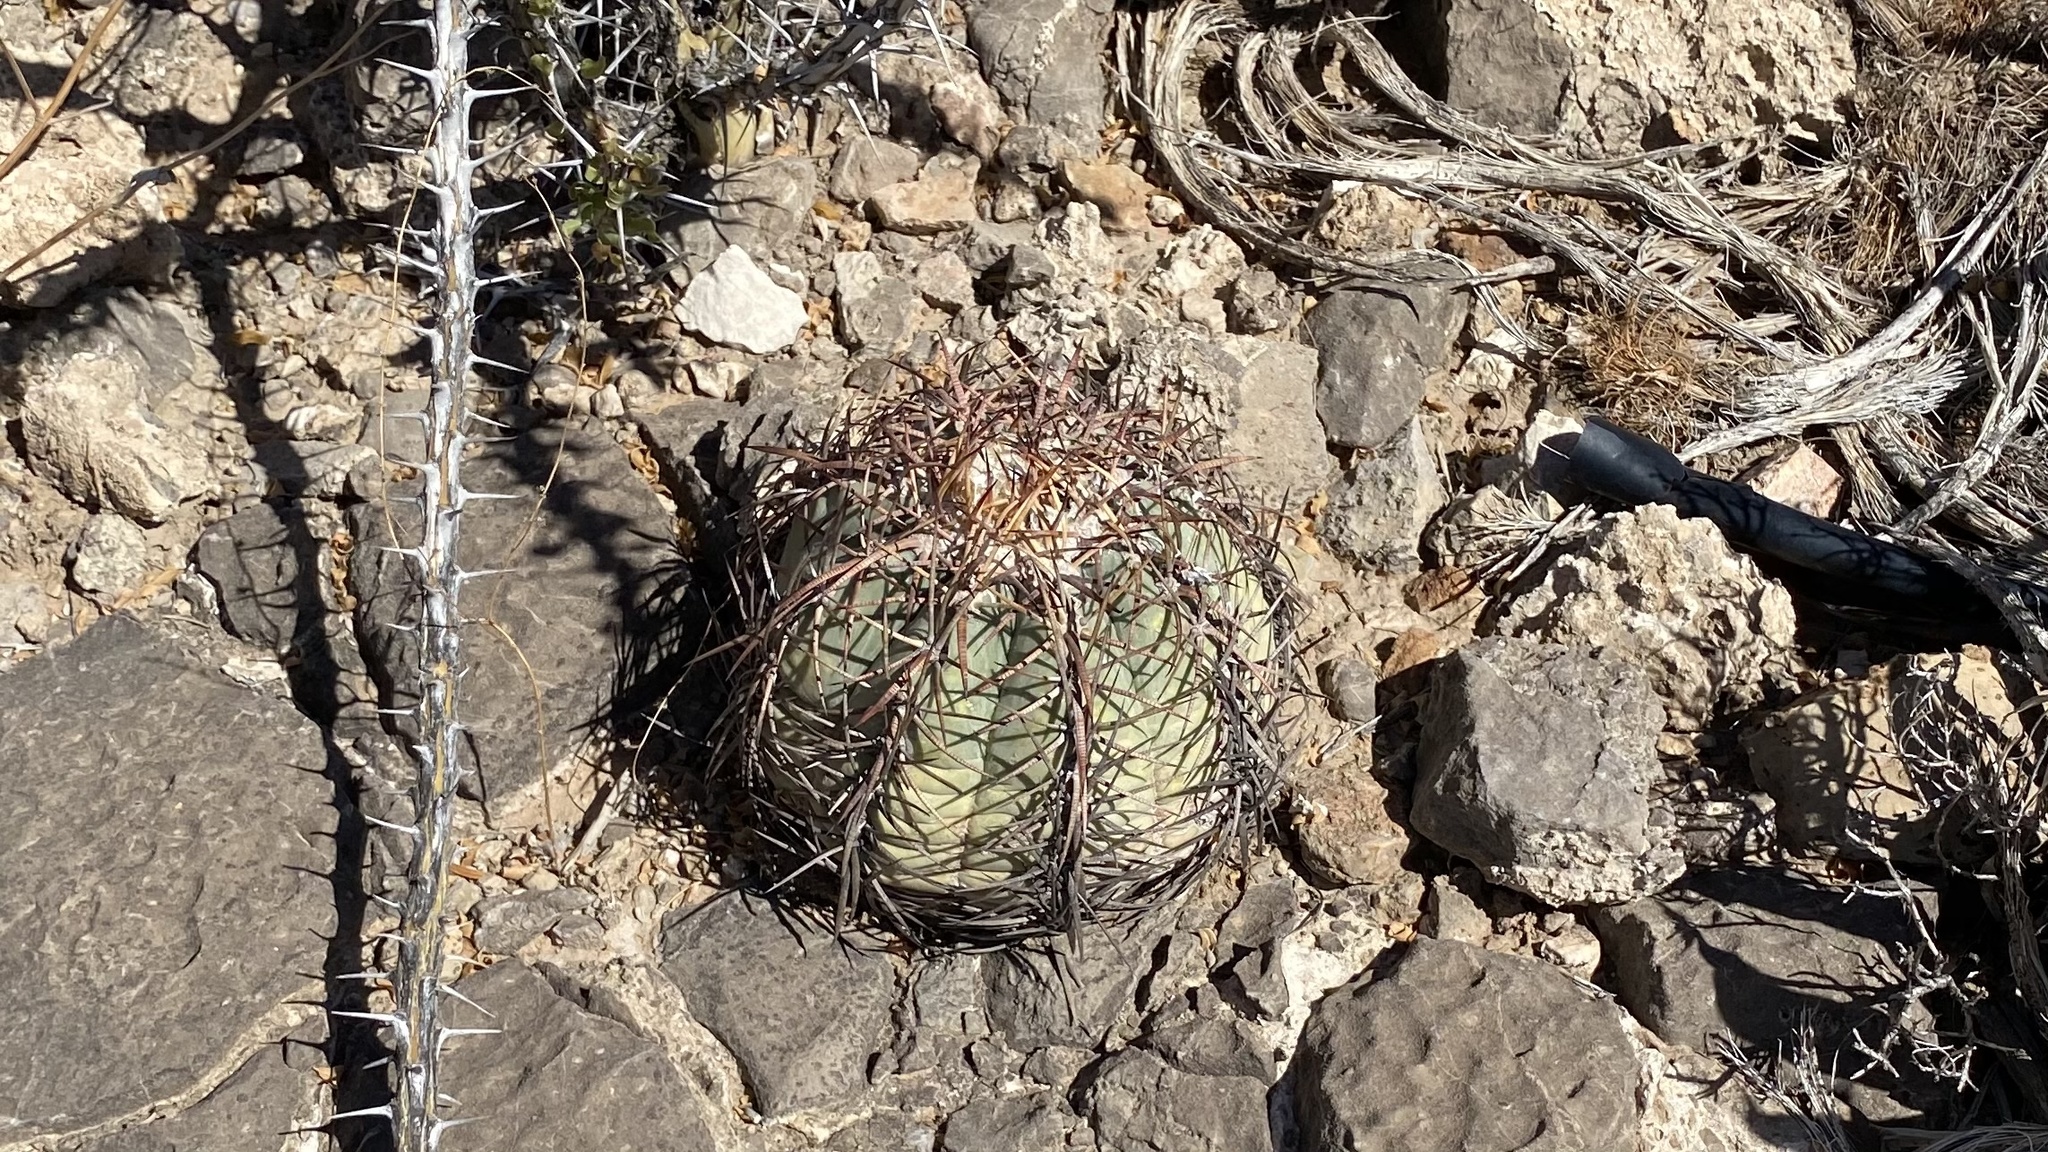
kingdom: Plantae
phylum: Tracheophyta
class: Magnoliopsida
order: Caryophyllales
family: Cactaceae
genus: Echinocactus
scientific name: Echinocactus horizonthalonius
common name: Devilshead
